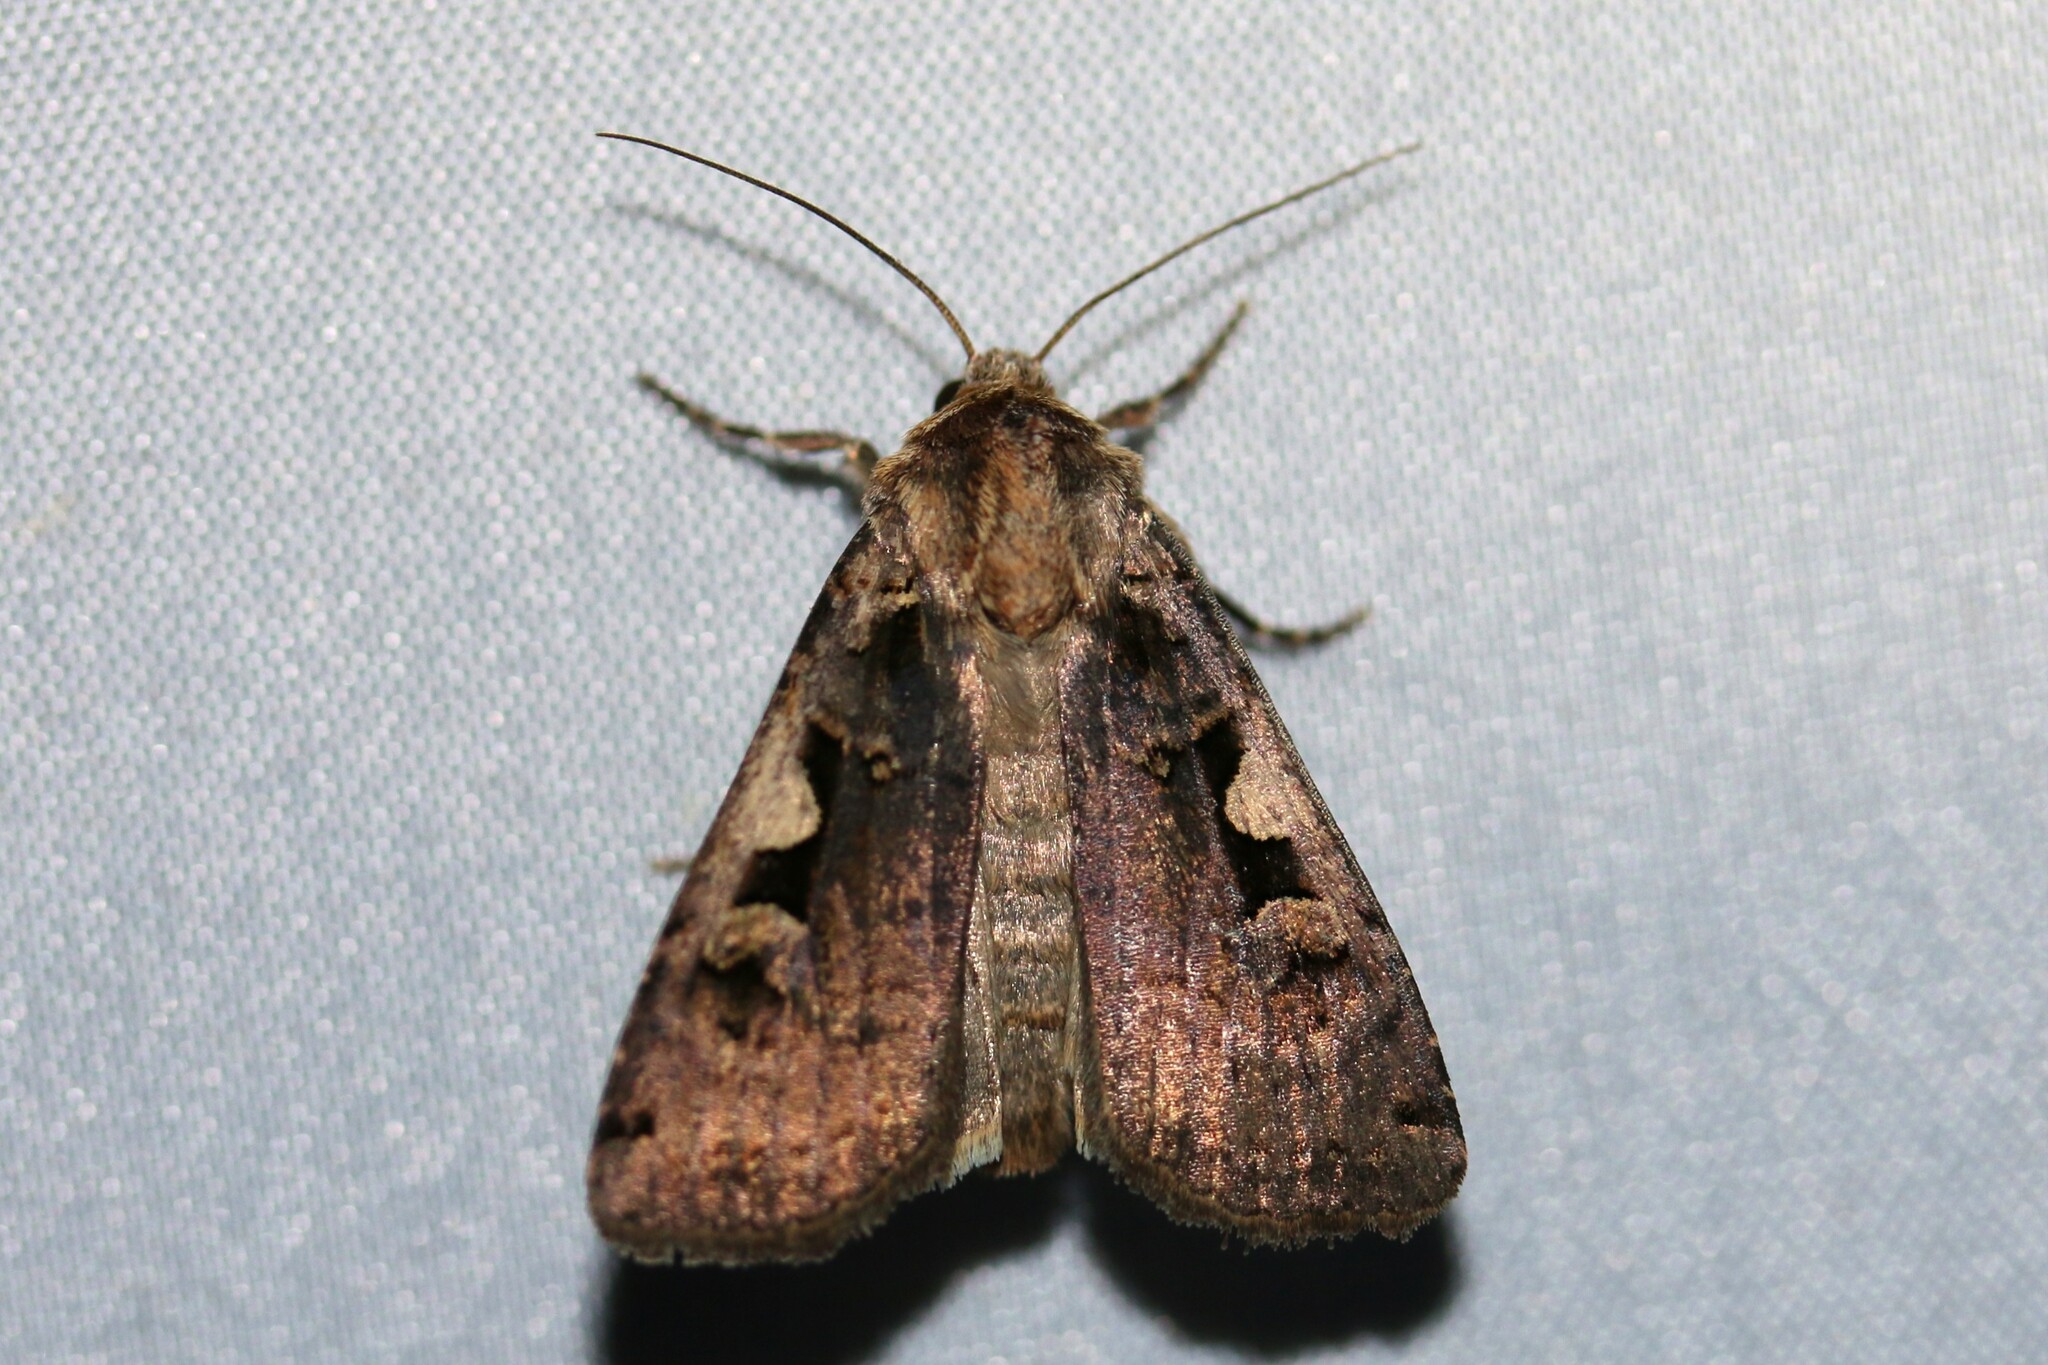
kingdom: Animalia
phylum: Arthropoda
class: Insecta
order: Lepidoptera
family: Noctuidae
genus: Xestia
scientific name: Xestia c-nigrum
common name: Setaceous hebrew character
